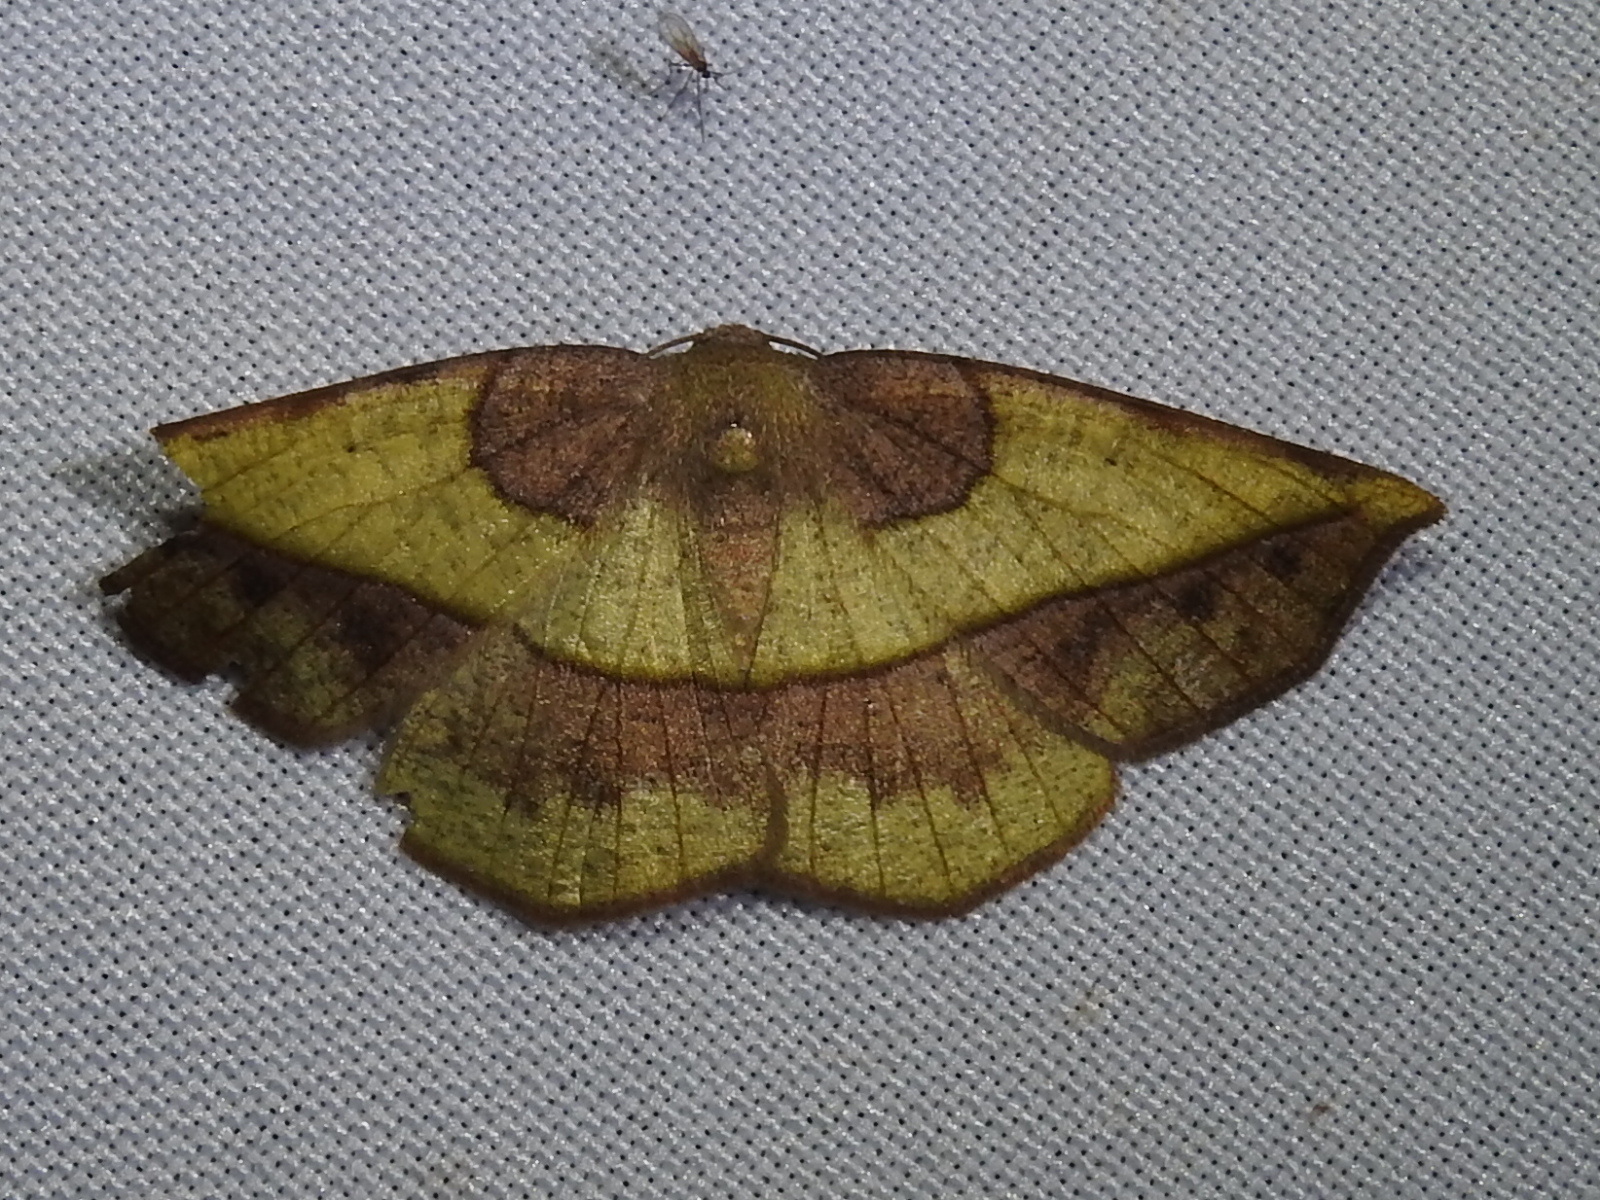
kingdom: Animalia
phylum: Arthropoda
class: Insecta
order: Lepidoptera
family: Geometridae
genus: Eusarca
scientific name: Eusarca fundaria
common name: Dark-edged eusarca moth
